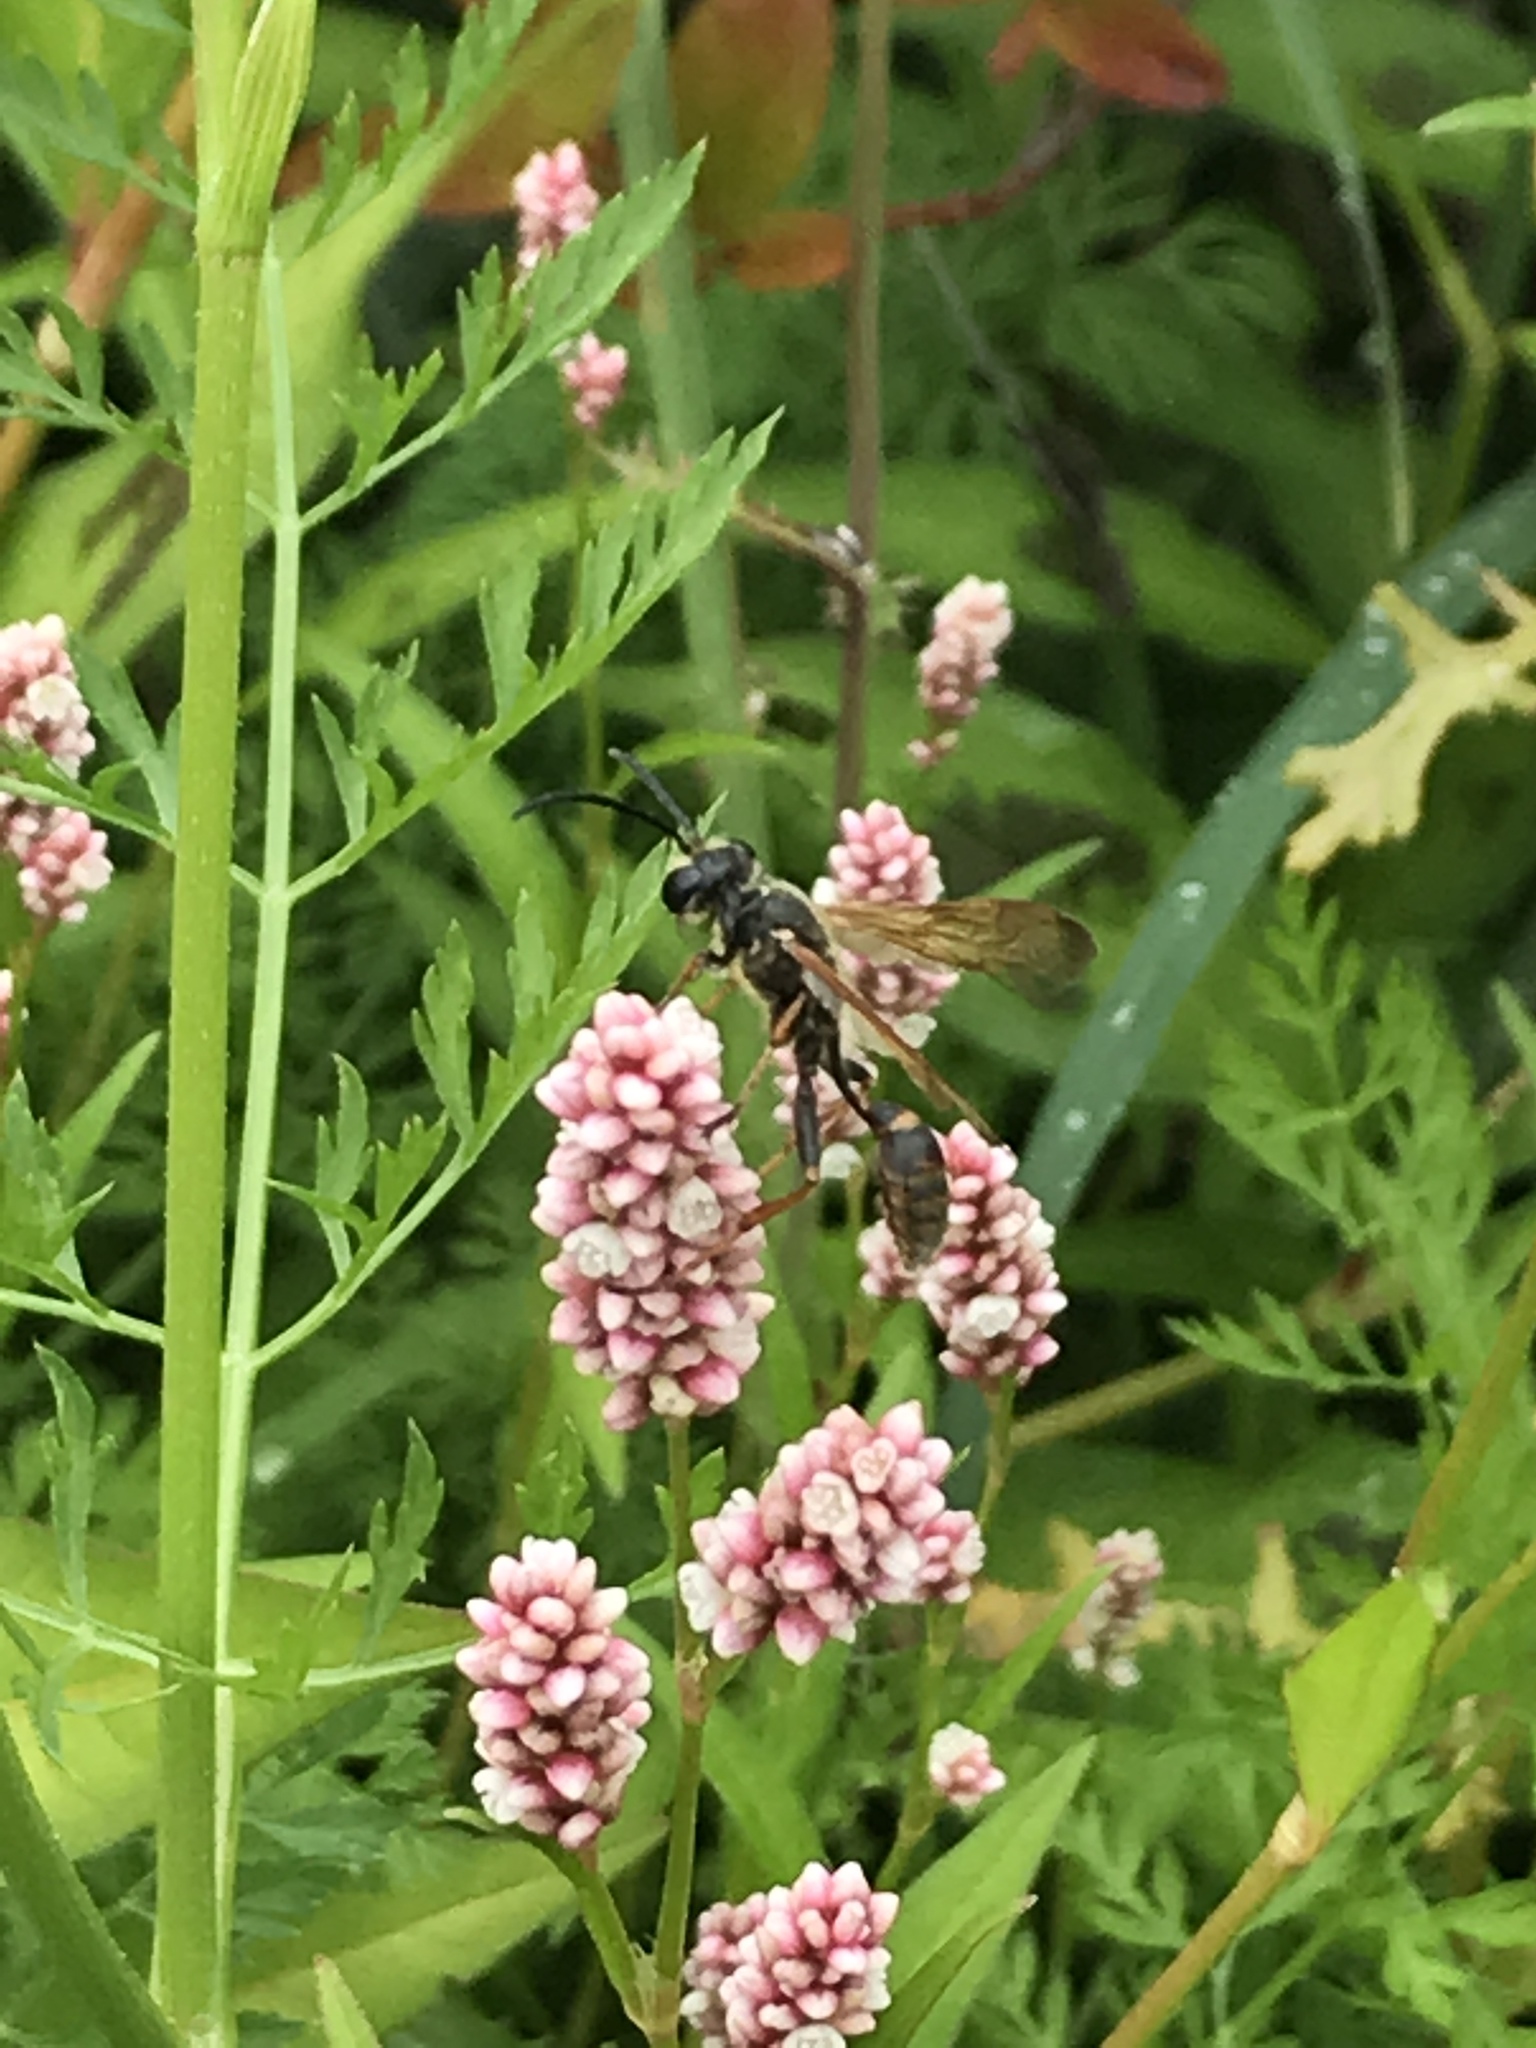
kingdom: Animalia
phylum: Arthropoda
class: Insecta
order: Hymenoptera
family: Sphecidae
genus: Isodontia
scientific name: Isodontia elegans
